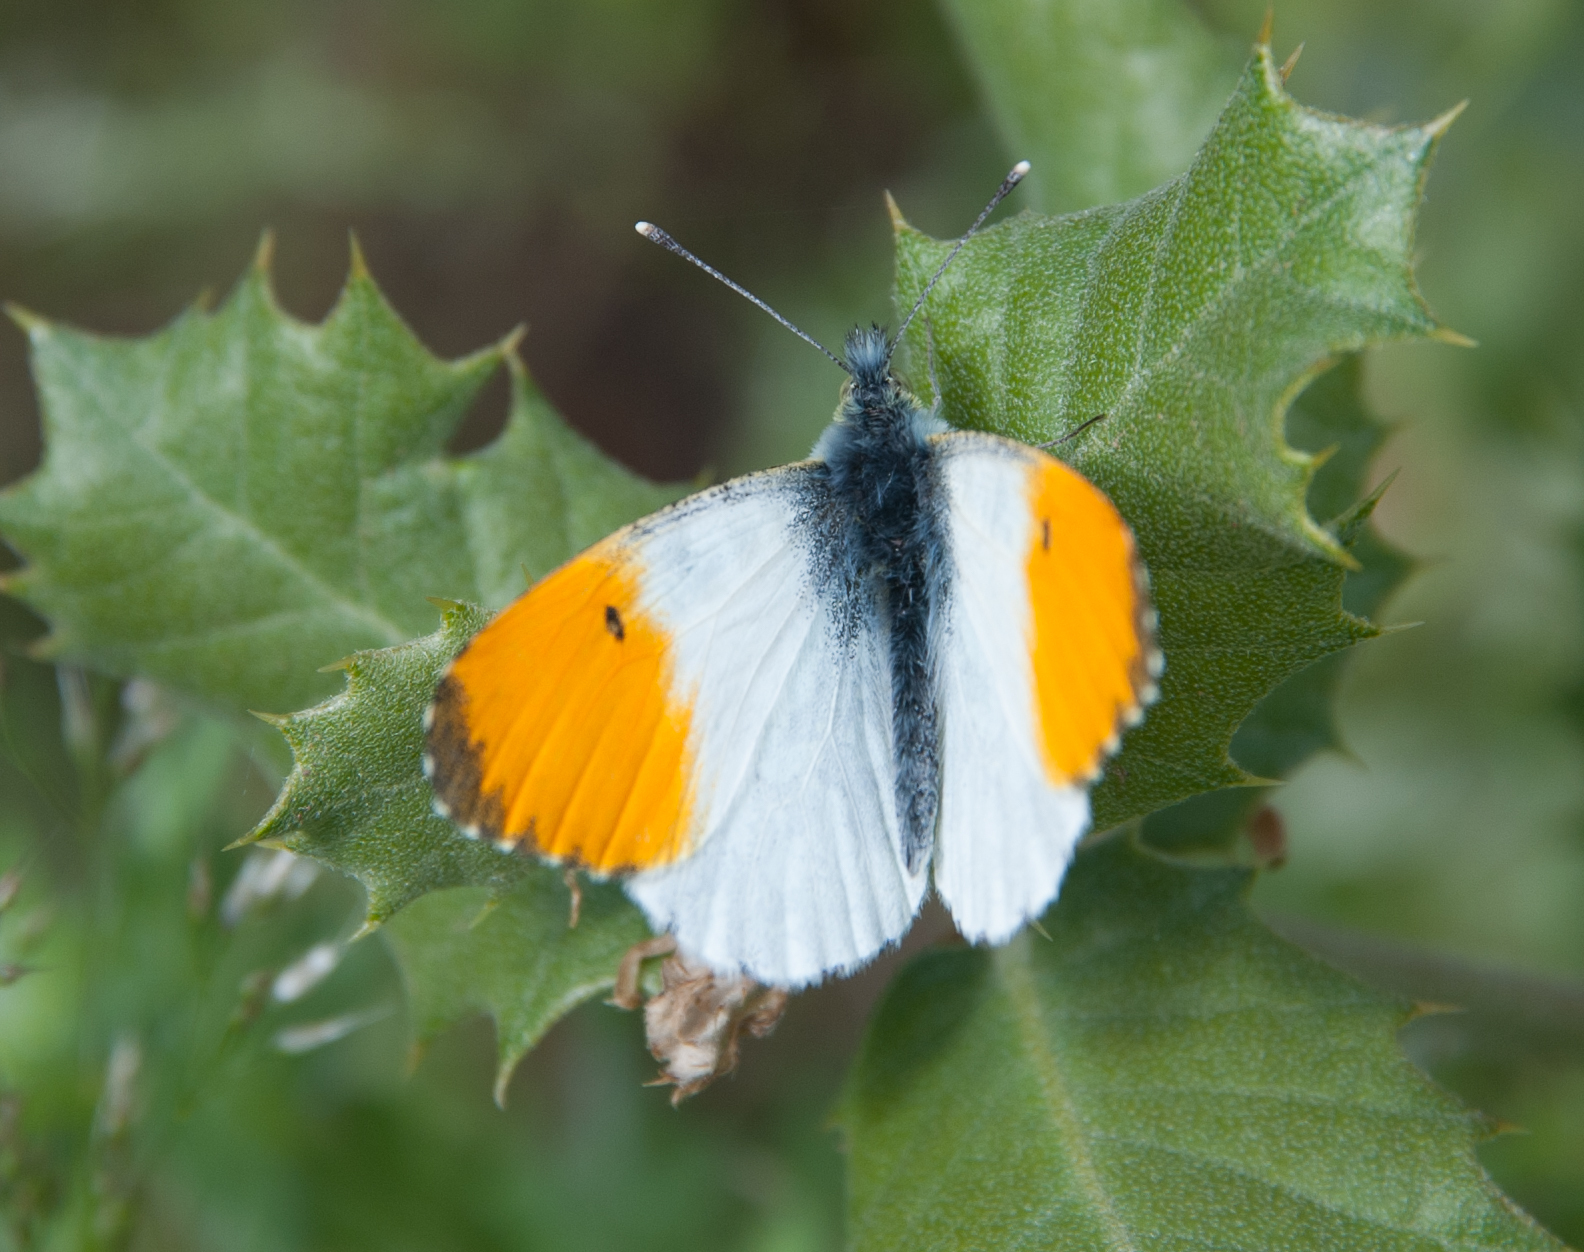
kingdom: Animalia
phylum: Arthropoda
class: Insecta
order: Lepidoptera
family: Pieridae
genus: Anthocharis
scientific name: Anthocharis cardamines
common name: Orange-tip
